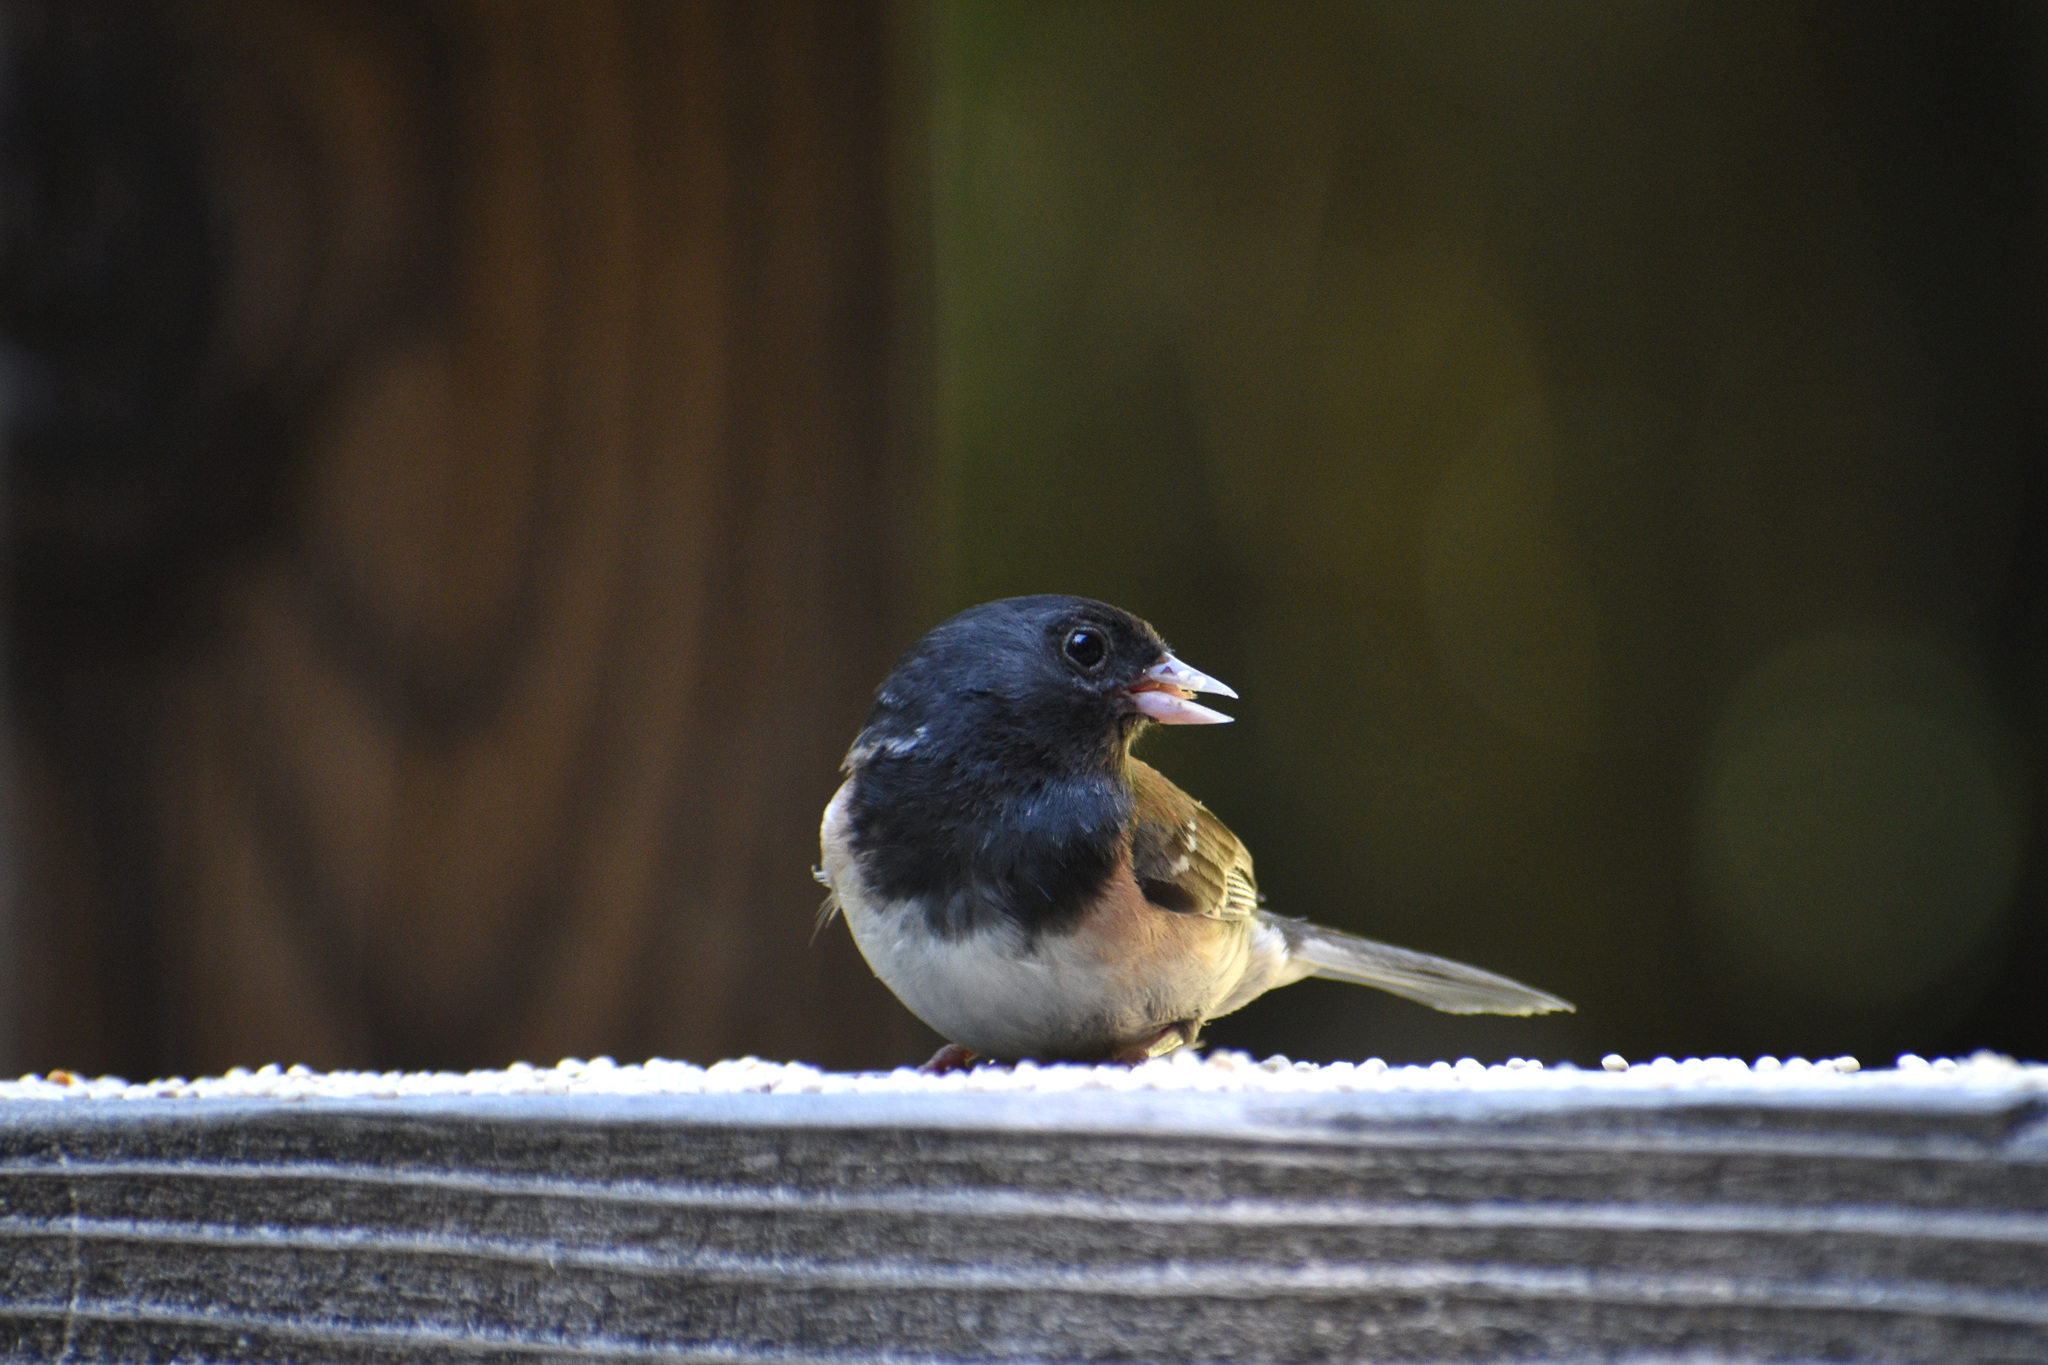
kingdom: Animalia
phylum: Chordata
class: Aves
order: Passeriformes
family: Passerellidae
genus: Junco
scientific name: Junco hyemalis
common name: Dark-eyed junco
